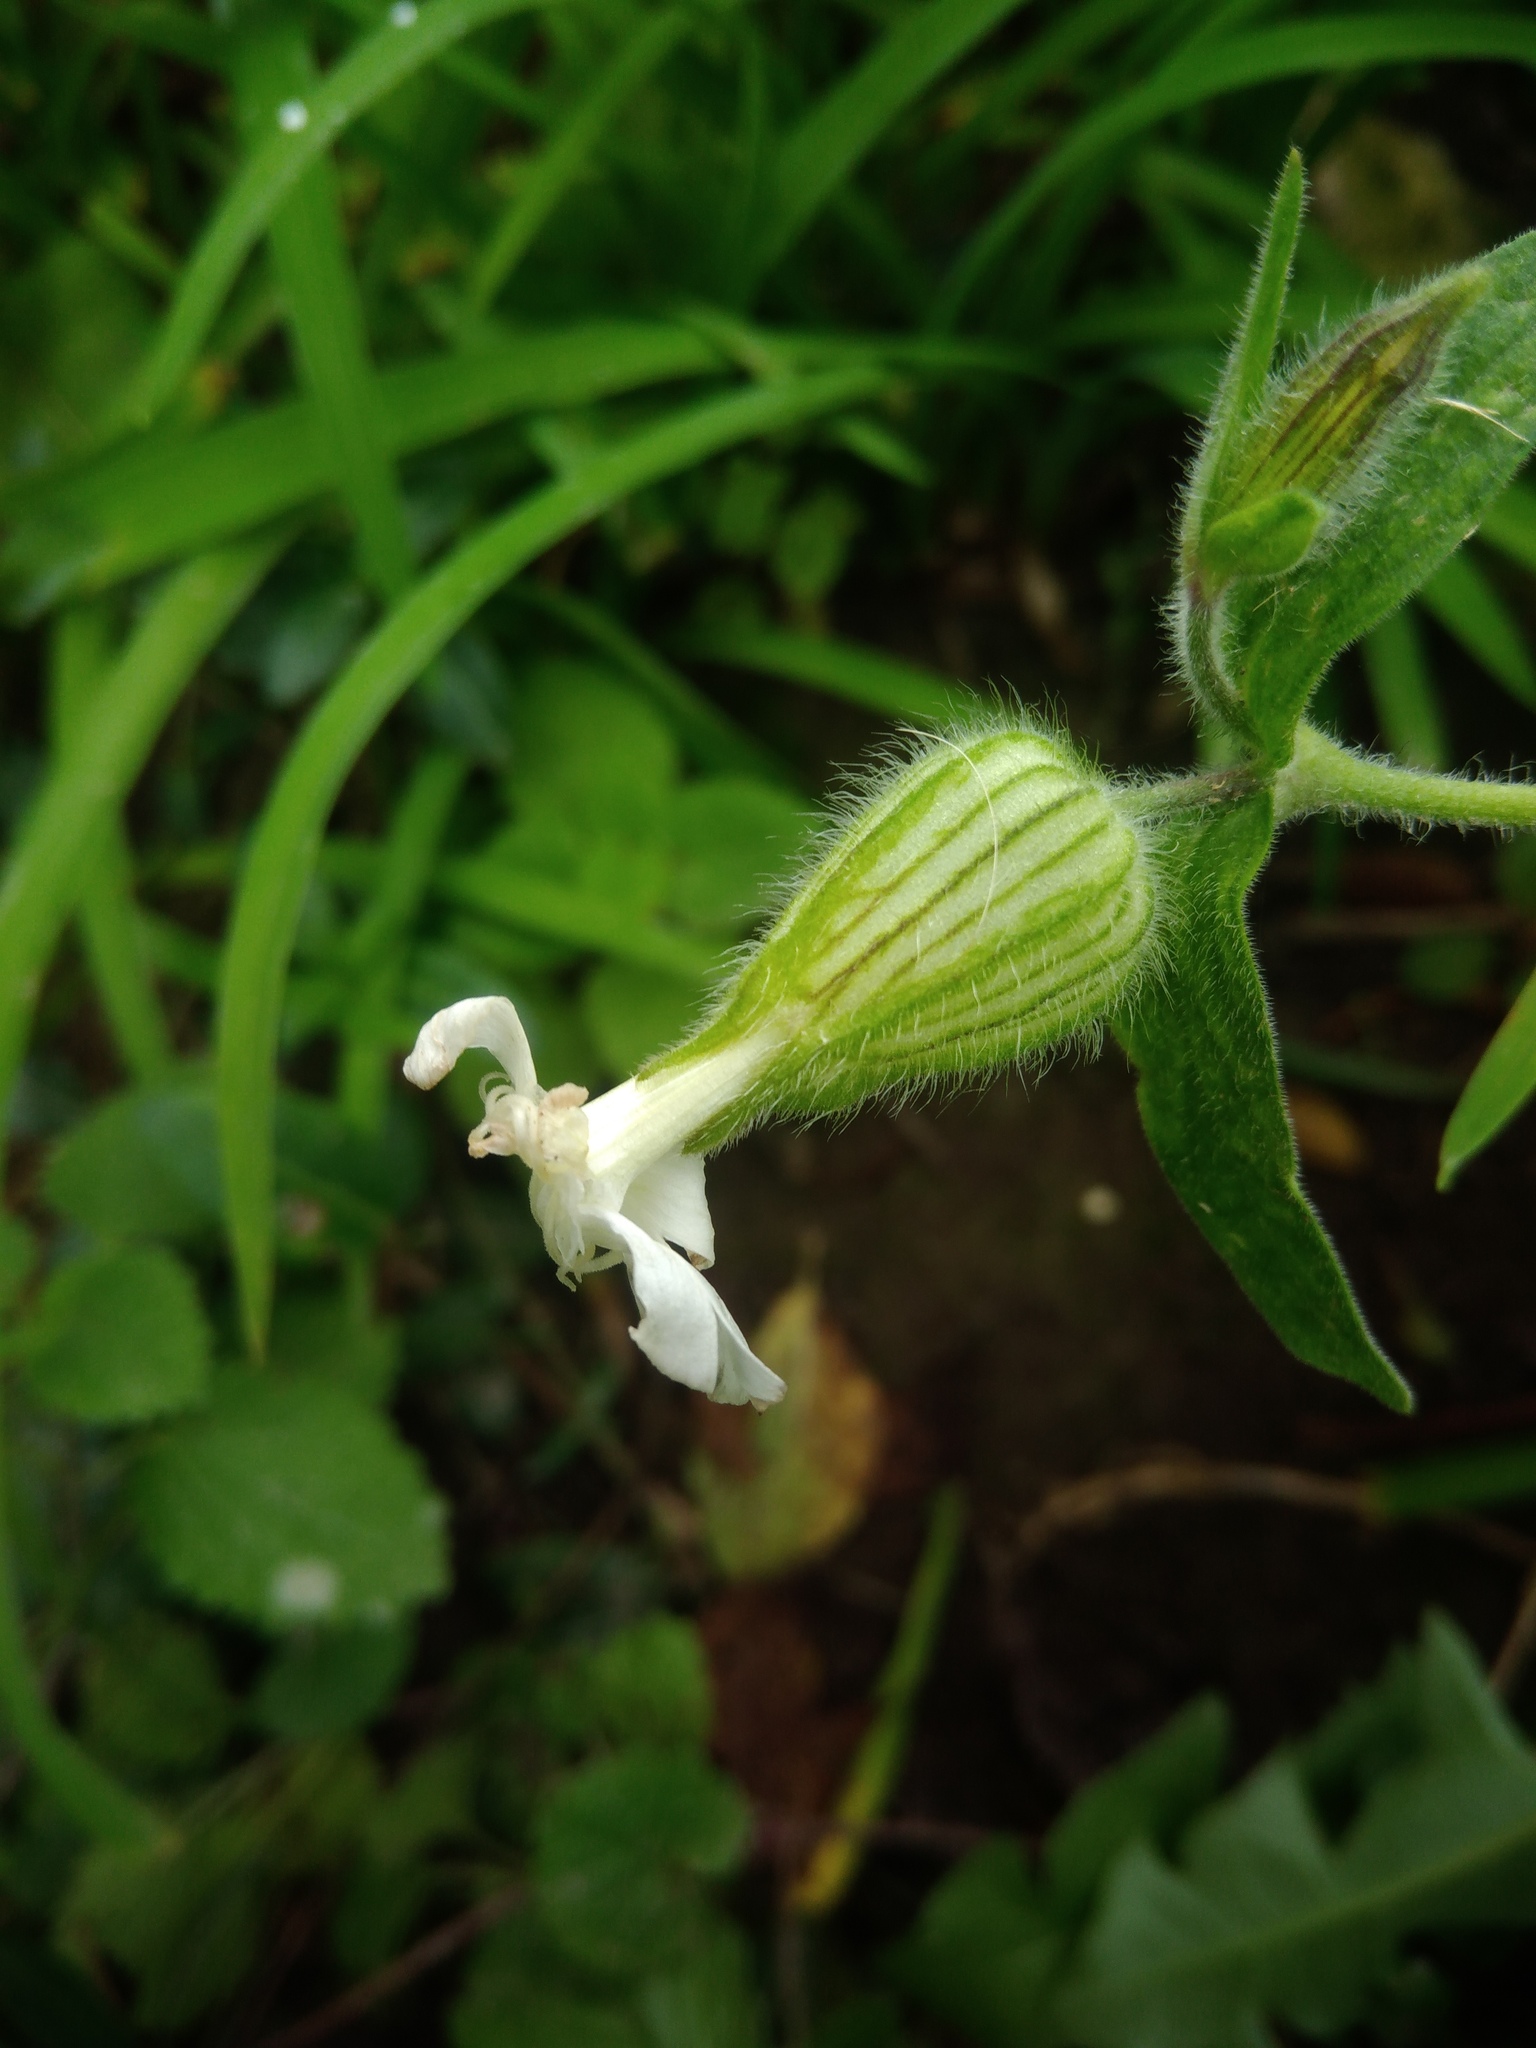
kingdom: Plantae
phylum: Tracheophyta
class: Magnoliopsida
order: Caryophyllales
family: Caryophyllaceae
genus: Silene
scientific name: Silene latifolia
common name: White campion
